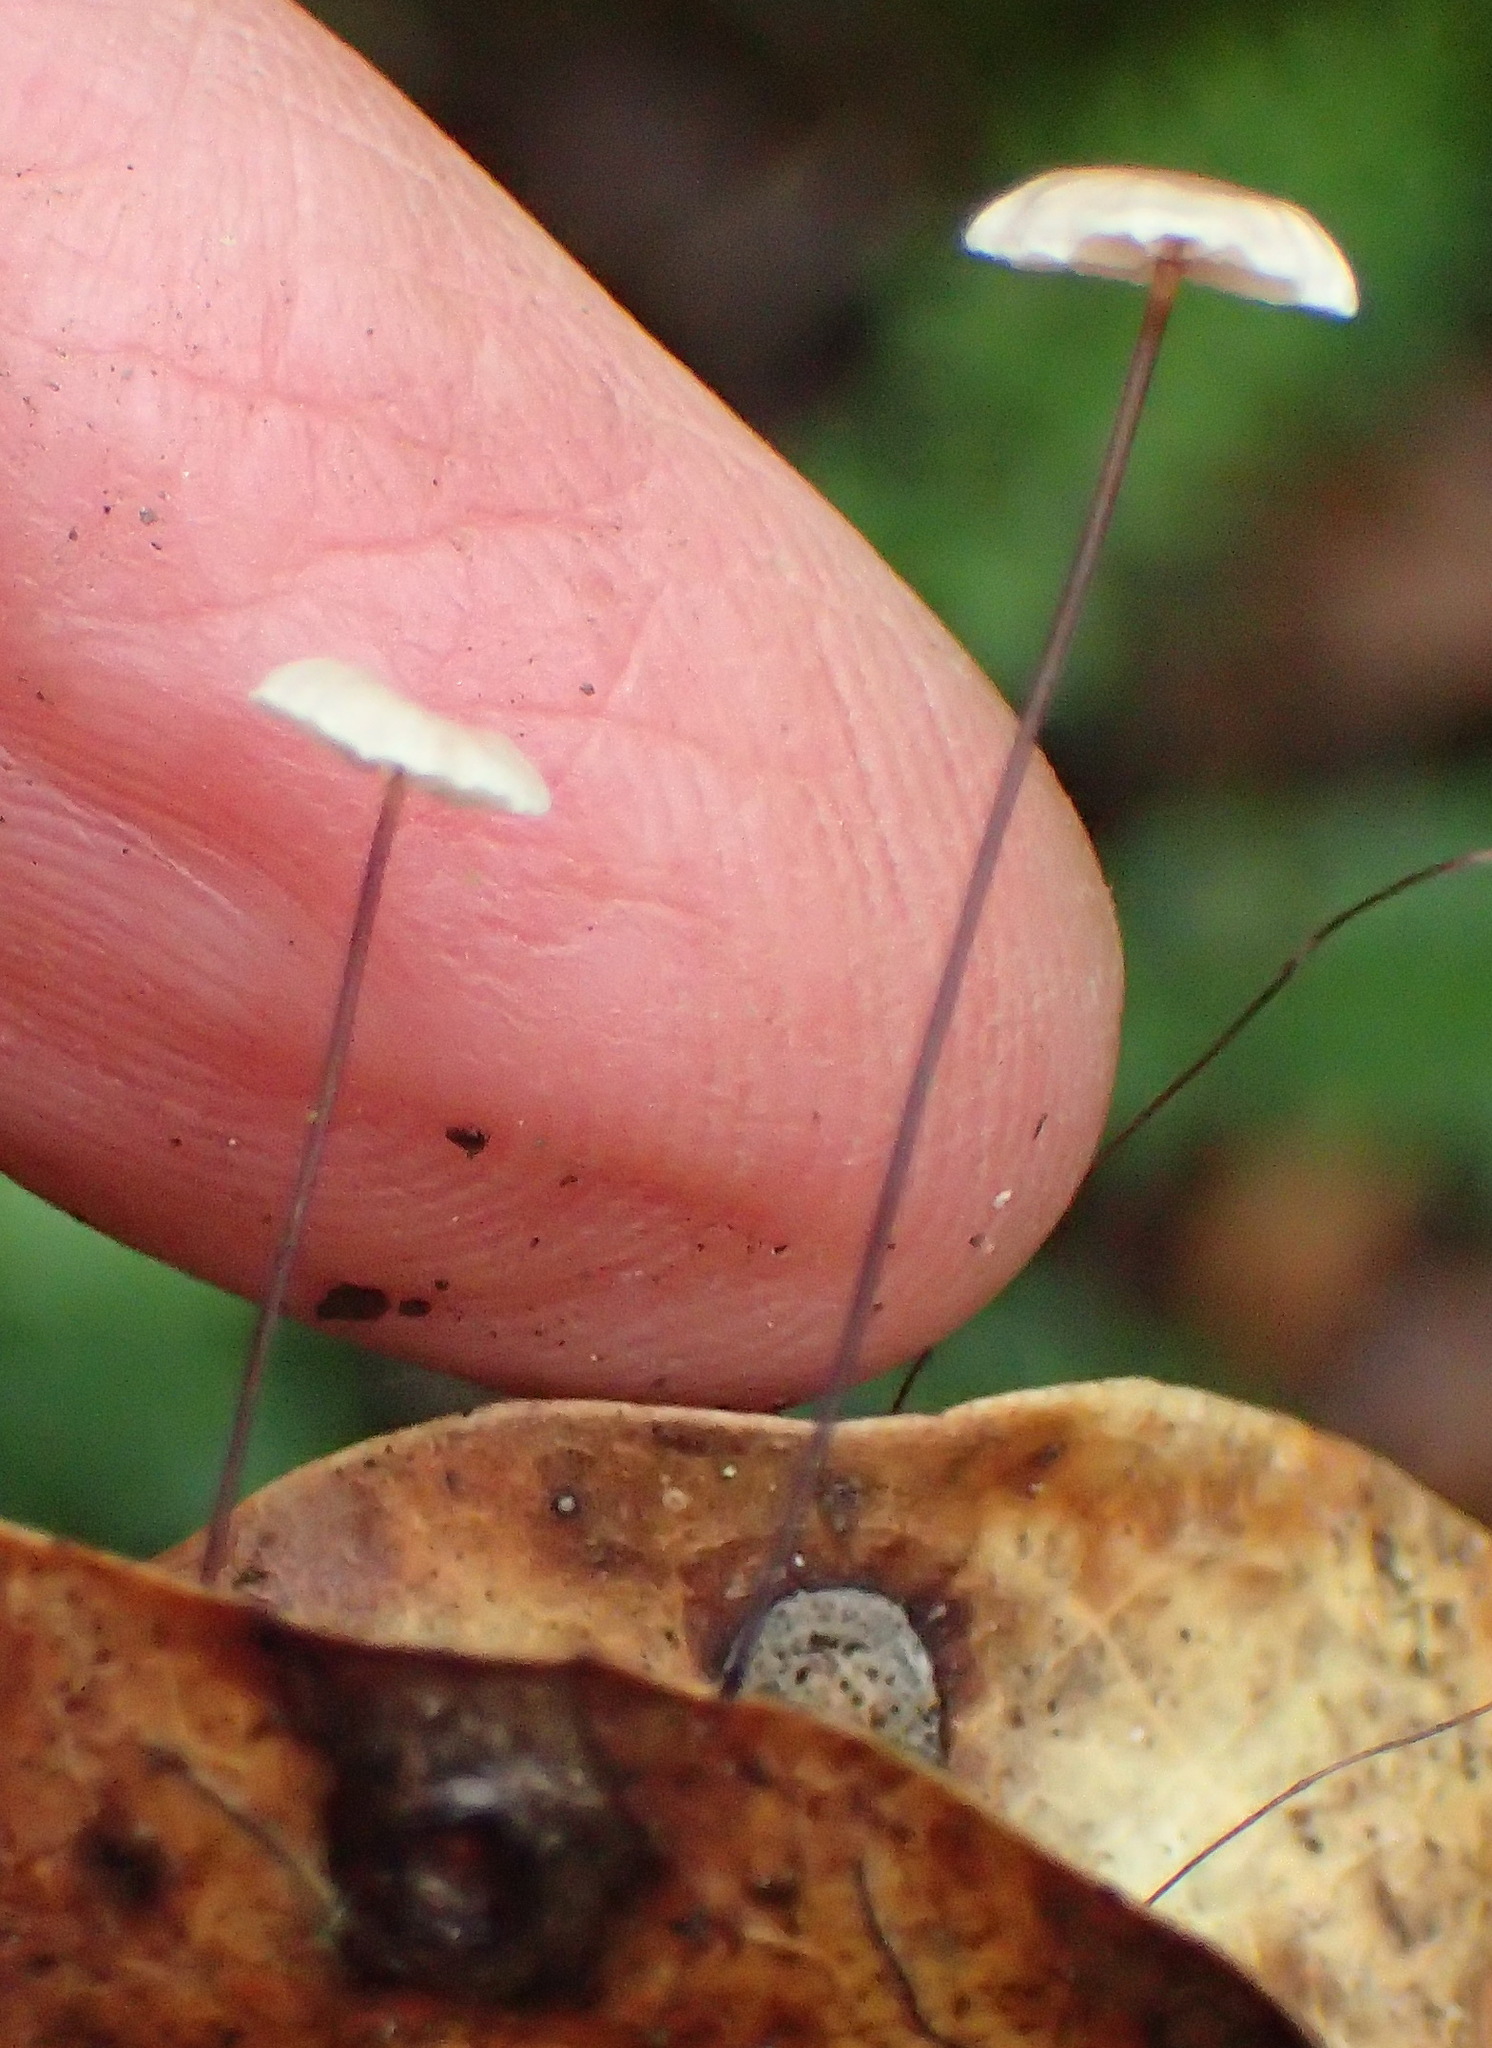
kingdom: Fungi
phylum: Basidiomycota
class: Agaricomycetes
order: Agaricales
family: Omphalotaceae
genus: Gymnopus
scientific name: Gymnopus androsaceus
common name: Horse-hair fungus
